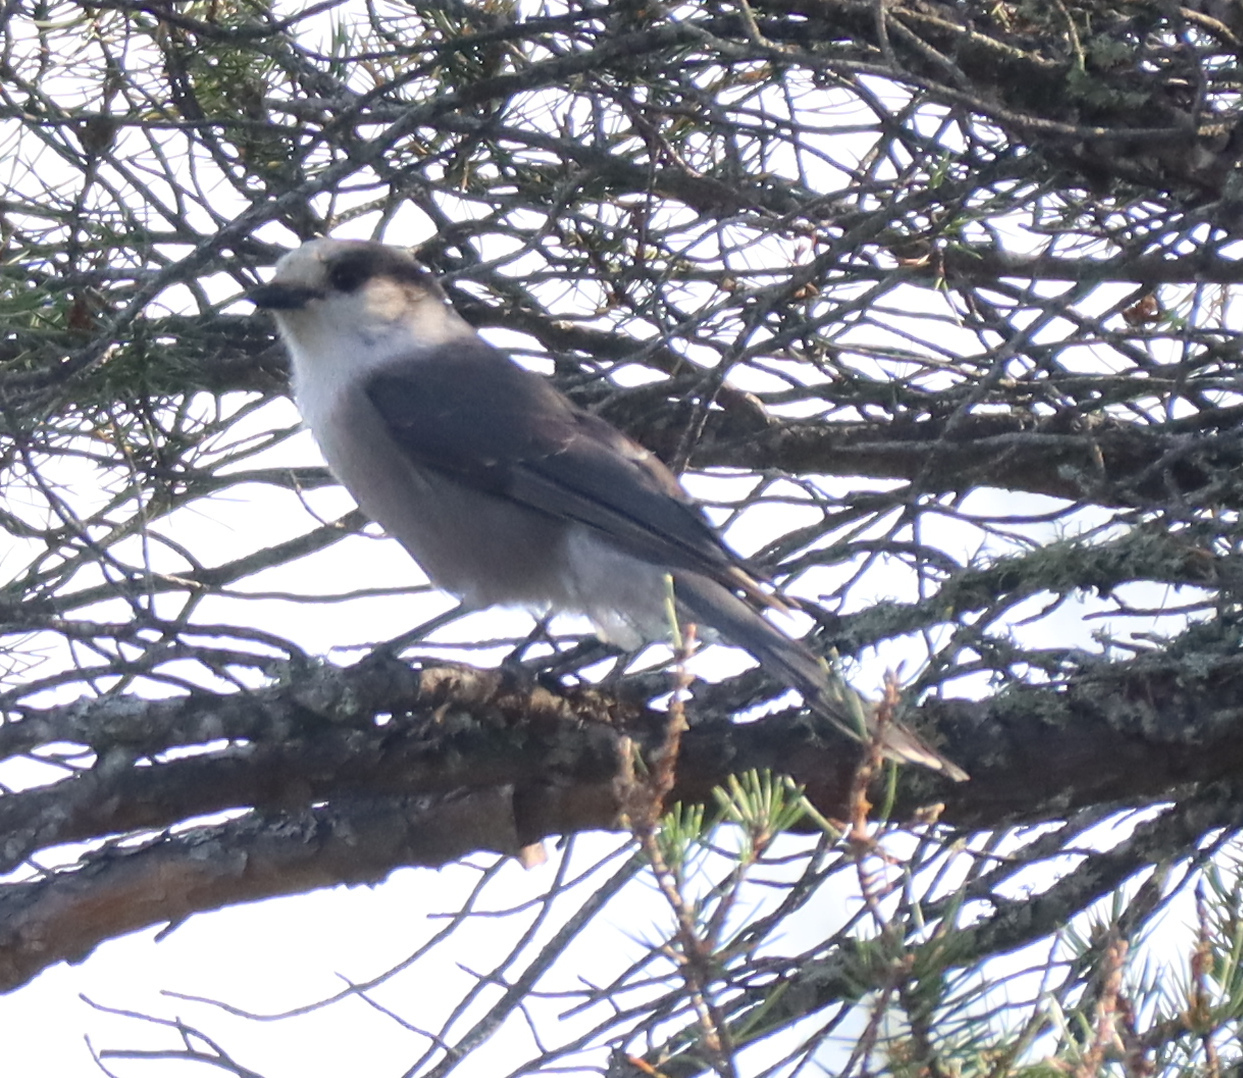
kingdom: Animalia
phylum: Chordata
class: Aves
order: Passeriformes
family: Corvidae
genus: Perisoreus
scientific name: Perisoreus canadensis
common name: Gray jay
